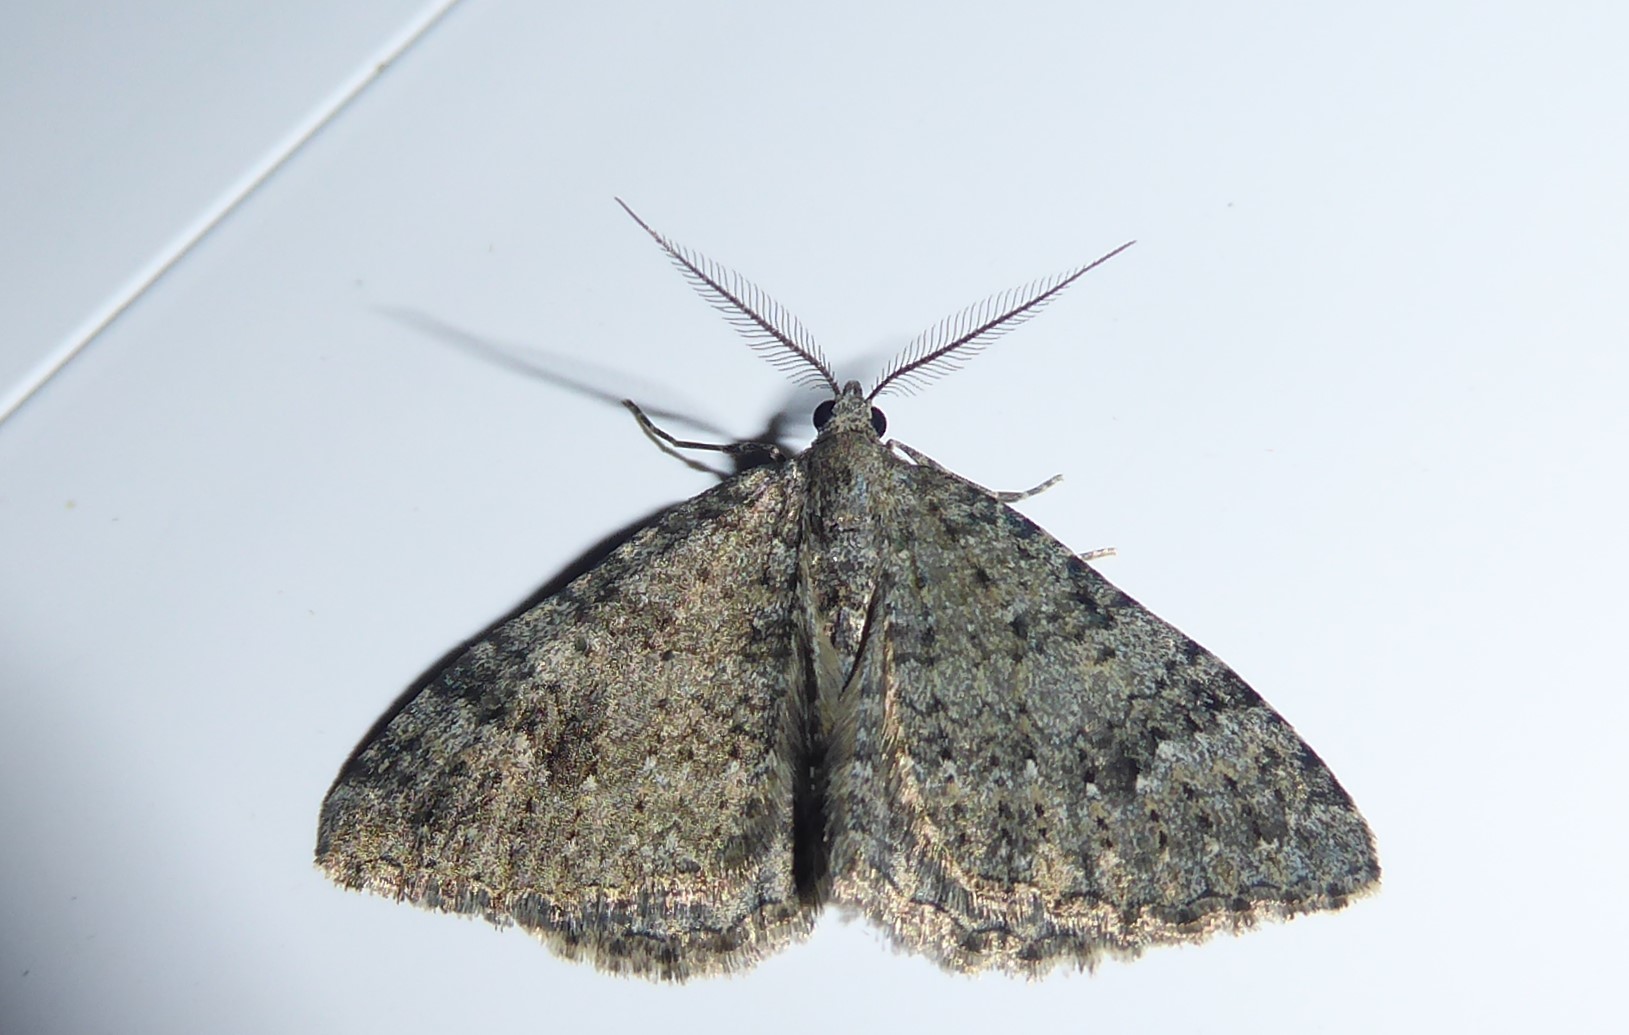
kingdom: Animalia
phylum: Arthropoda
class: Insecta
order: Lepidoptera
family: Geometridae
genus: Helastia
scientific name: Helastia corcularia
